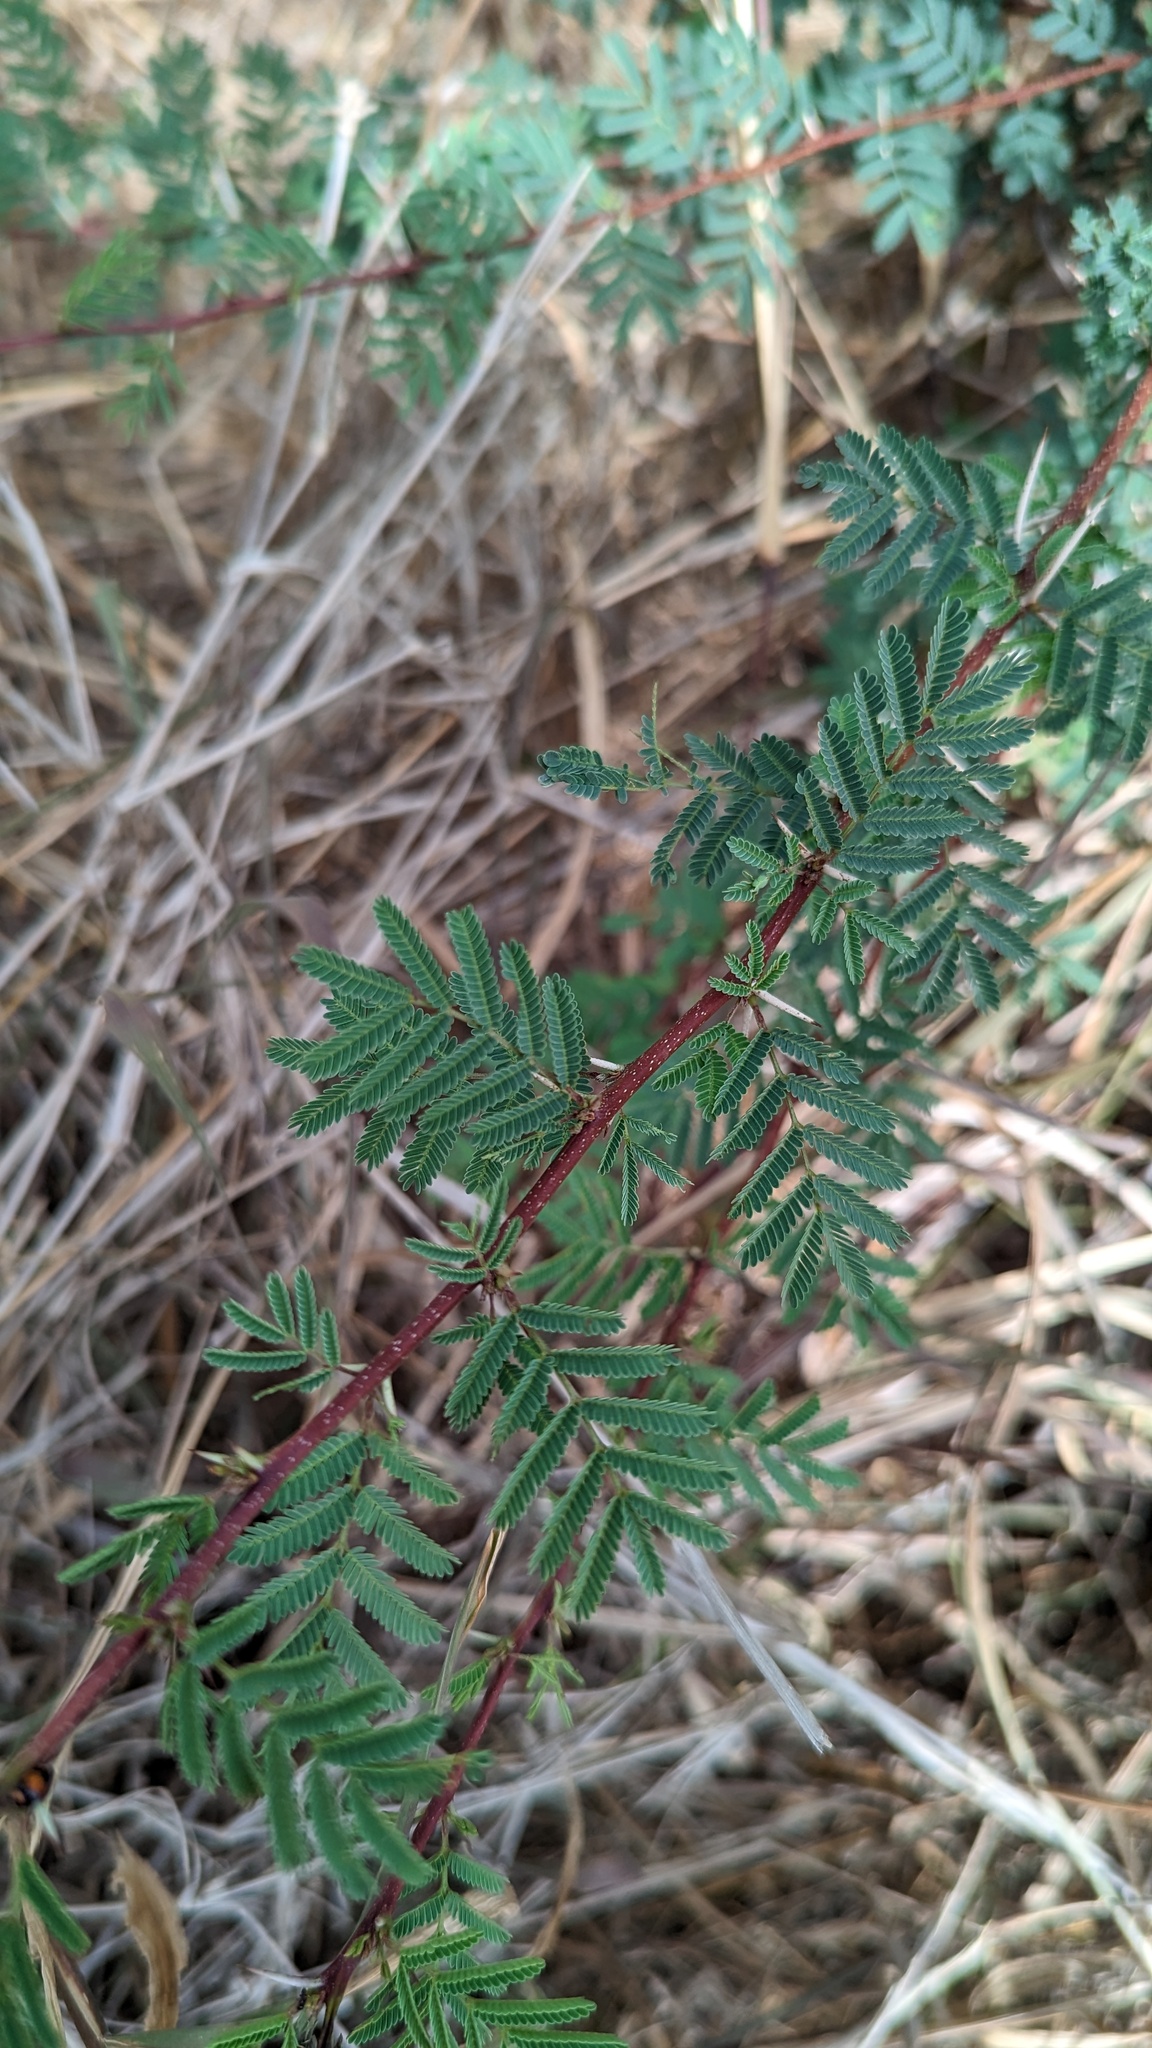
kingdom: Plantae
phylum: Tracheophyta
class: Magnoliopsida
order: Fabales
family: Fabaceae
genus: Vachellia
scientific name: Vachellia farnesiana
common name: Sweet acacia
